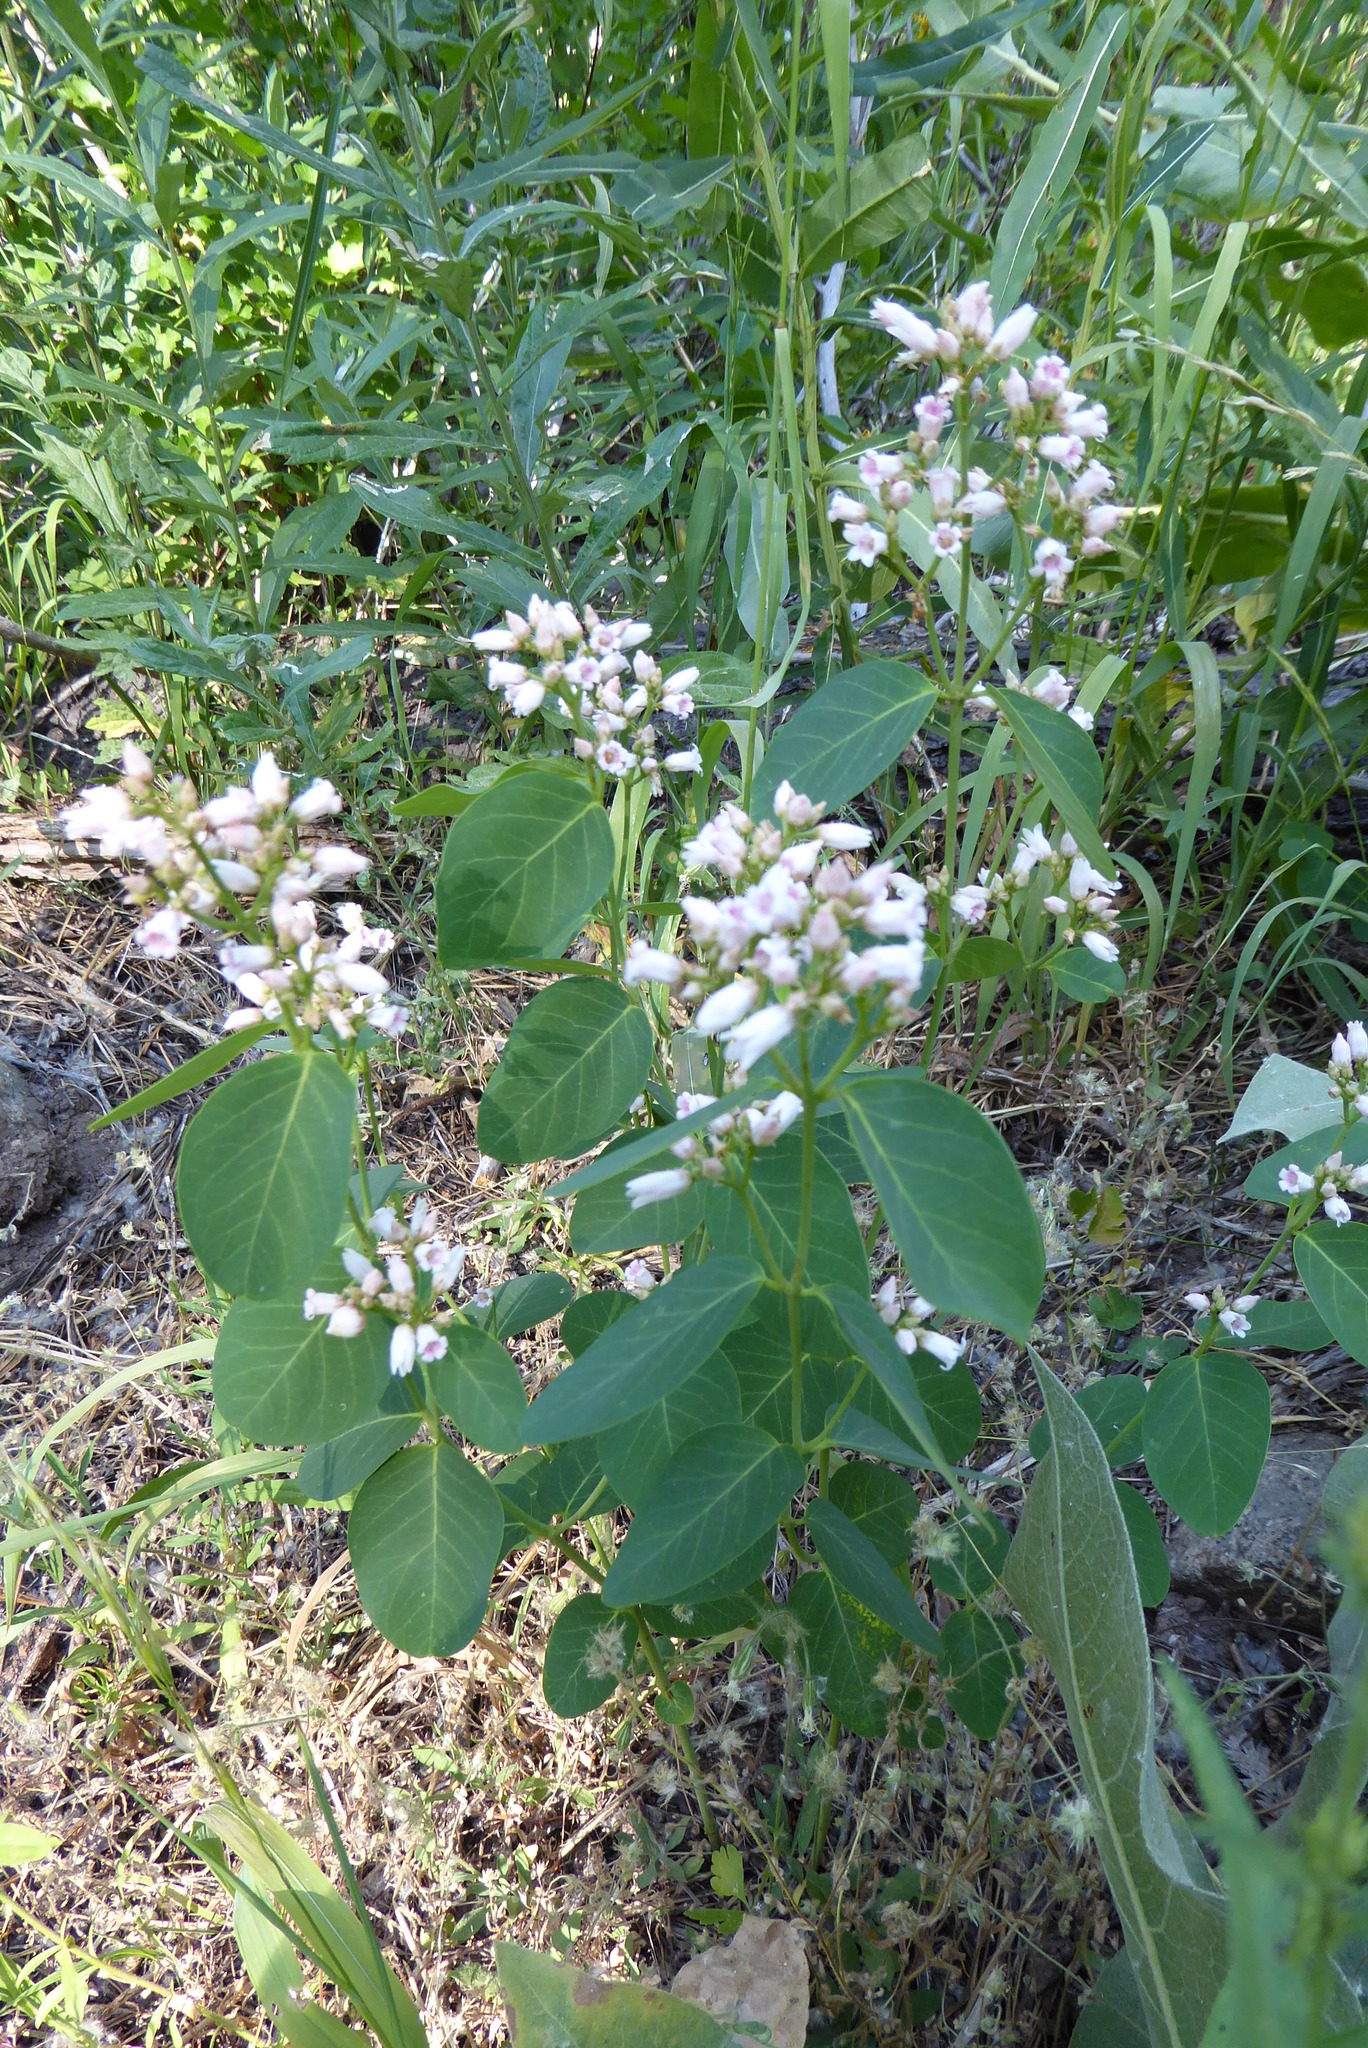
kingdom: Plantae
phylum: Tracheophyta
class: Magnoliopsida
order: Gentianales
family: Apocynaceae
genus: Apocynum
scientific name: Apocynum androsaemifolium
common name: Spreading dogbane
